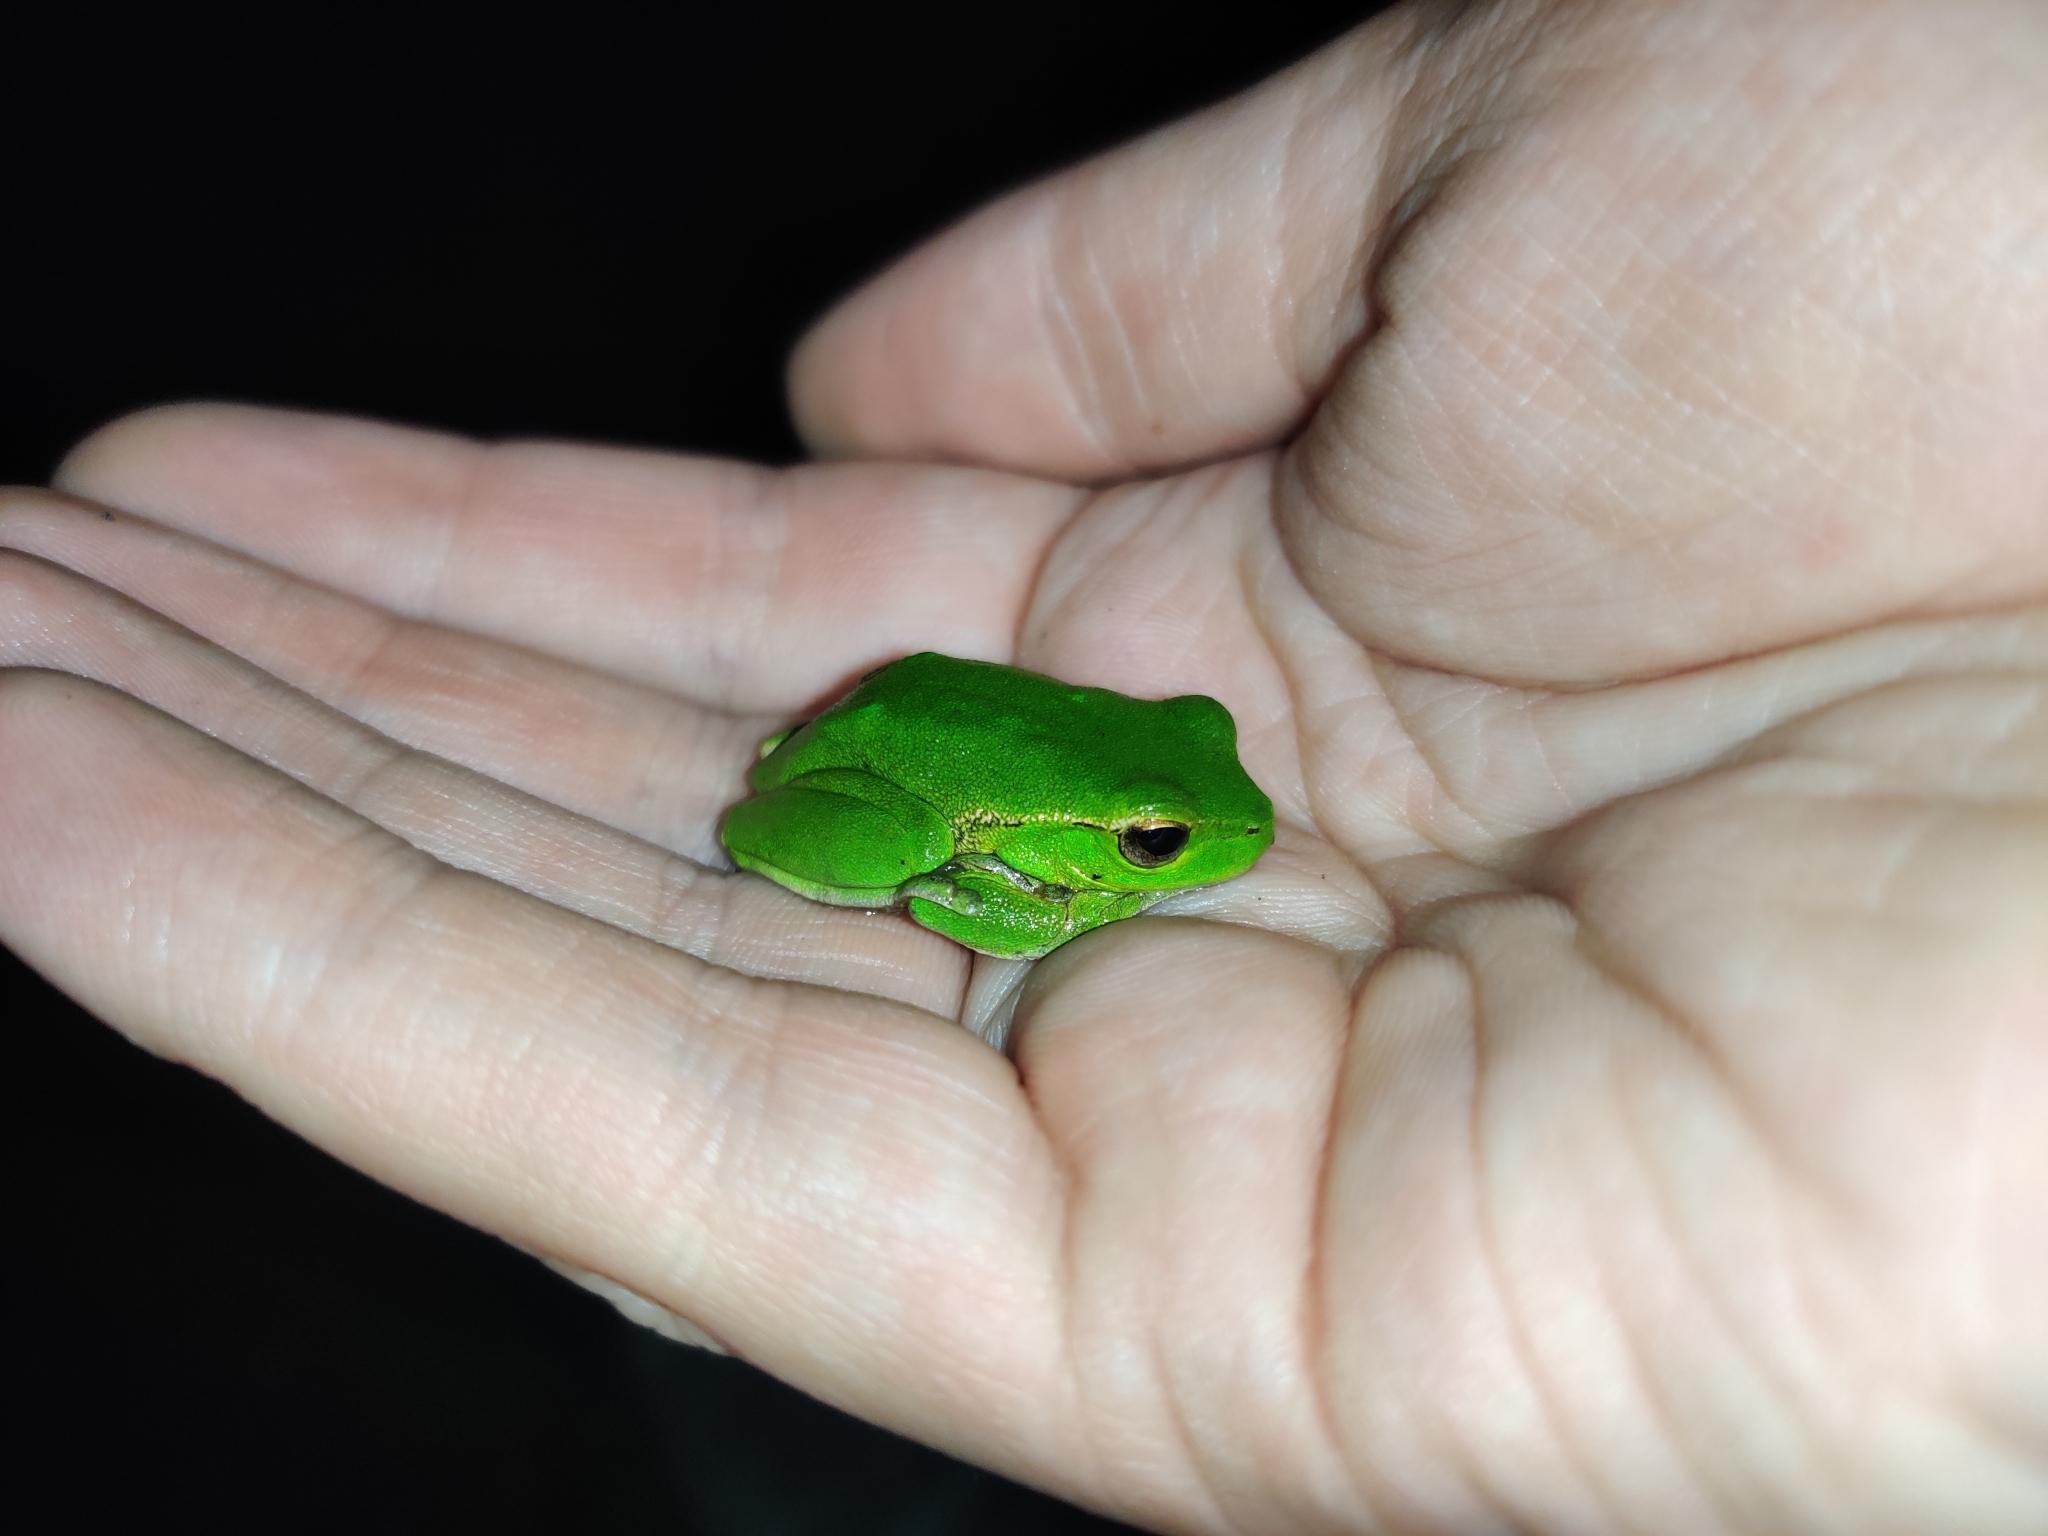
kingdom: Animalia
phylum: Chordata
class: Amphibia
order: Anura
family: Pelodryadidae
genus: Ranoidea
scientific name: Ranoidea phyllochroa
